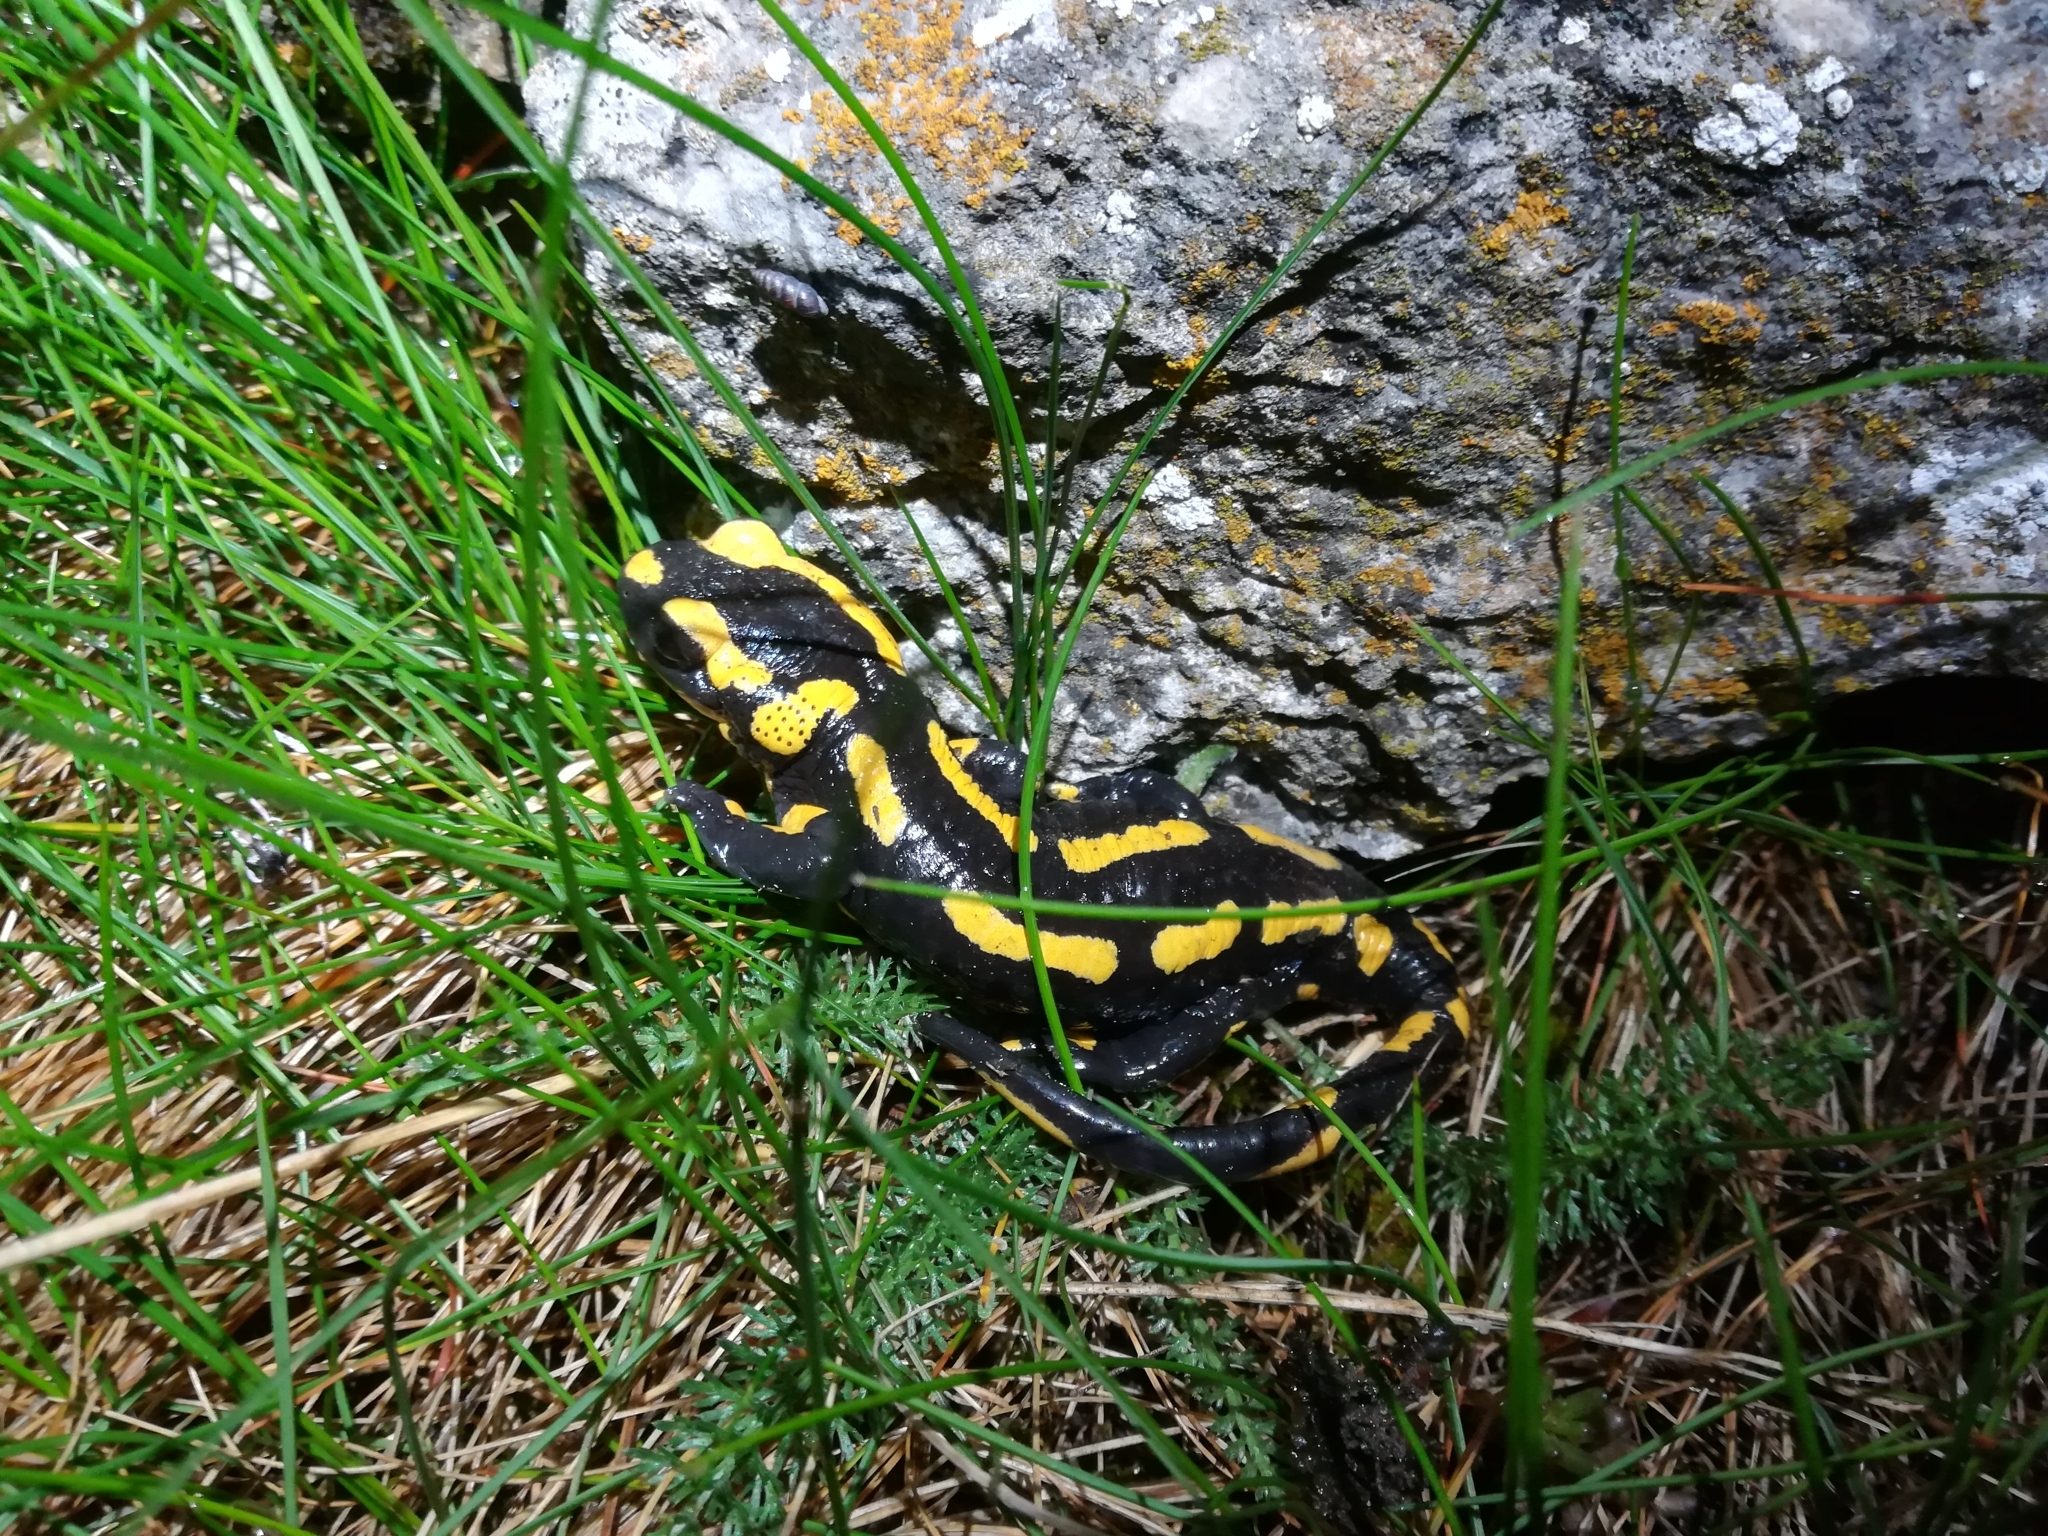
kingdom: Animalia
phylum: Chordata
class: Amphibia
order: Caudata
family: Salamandridae
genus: Salamandra
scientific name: Salamandra salamandra
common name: Fire salamander
